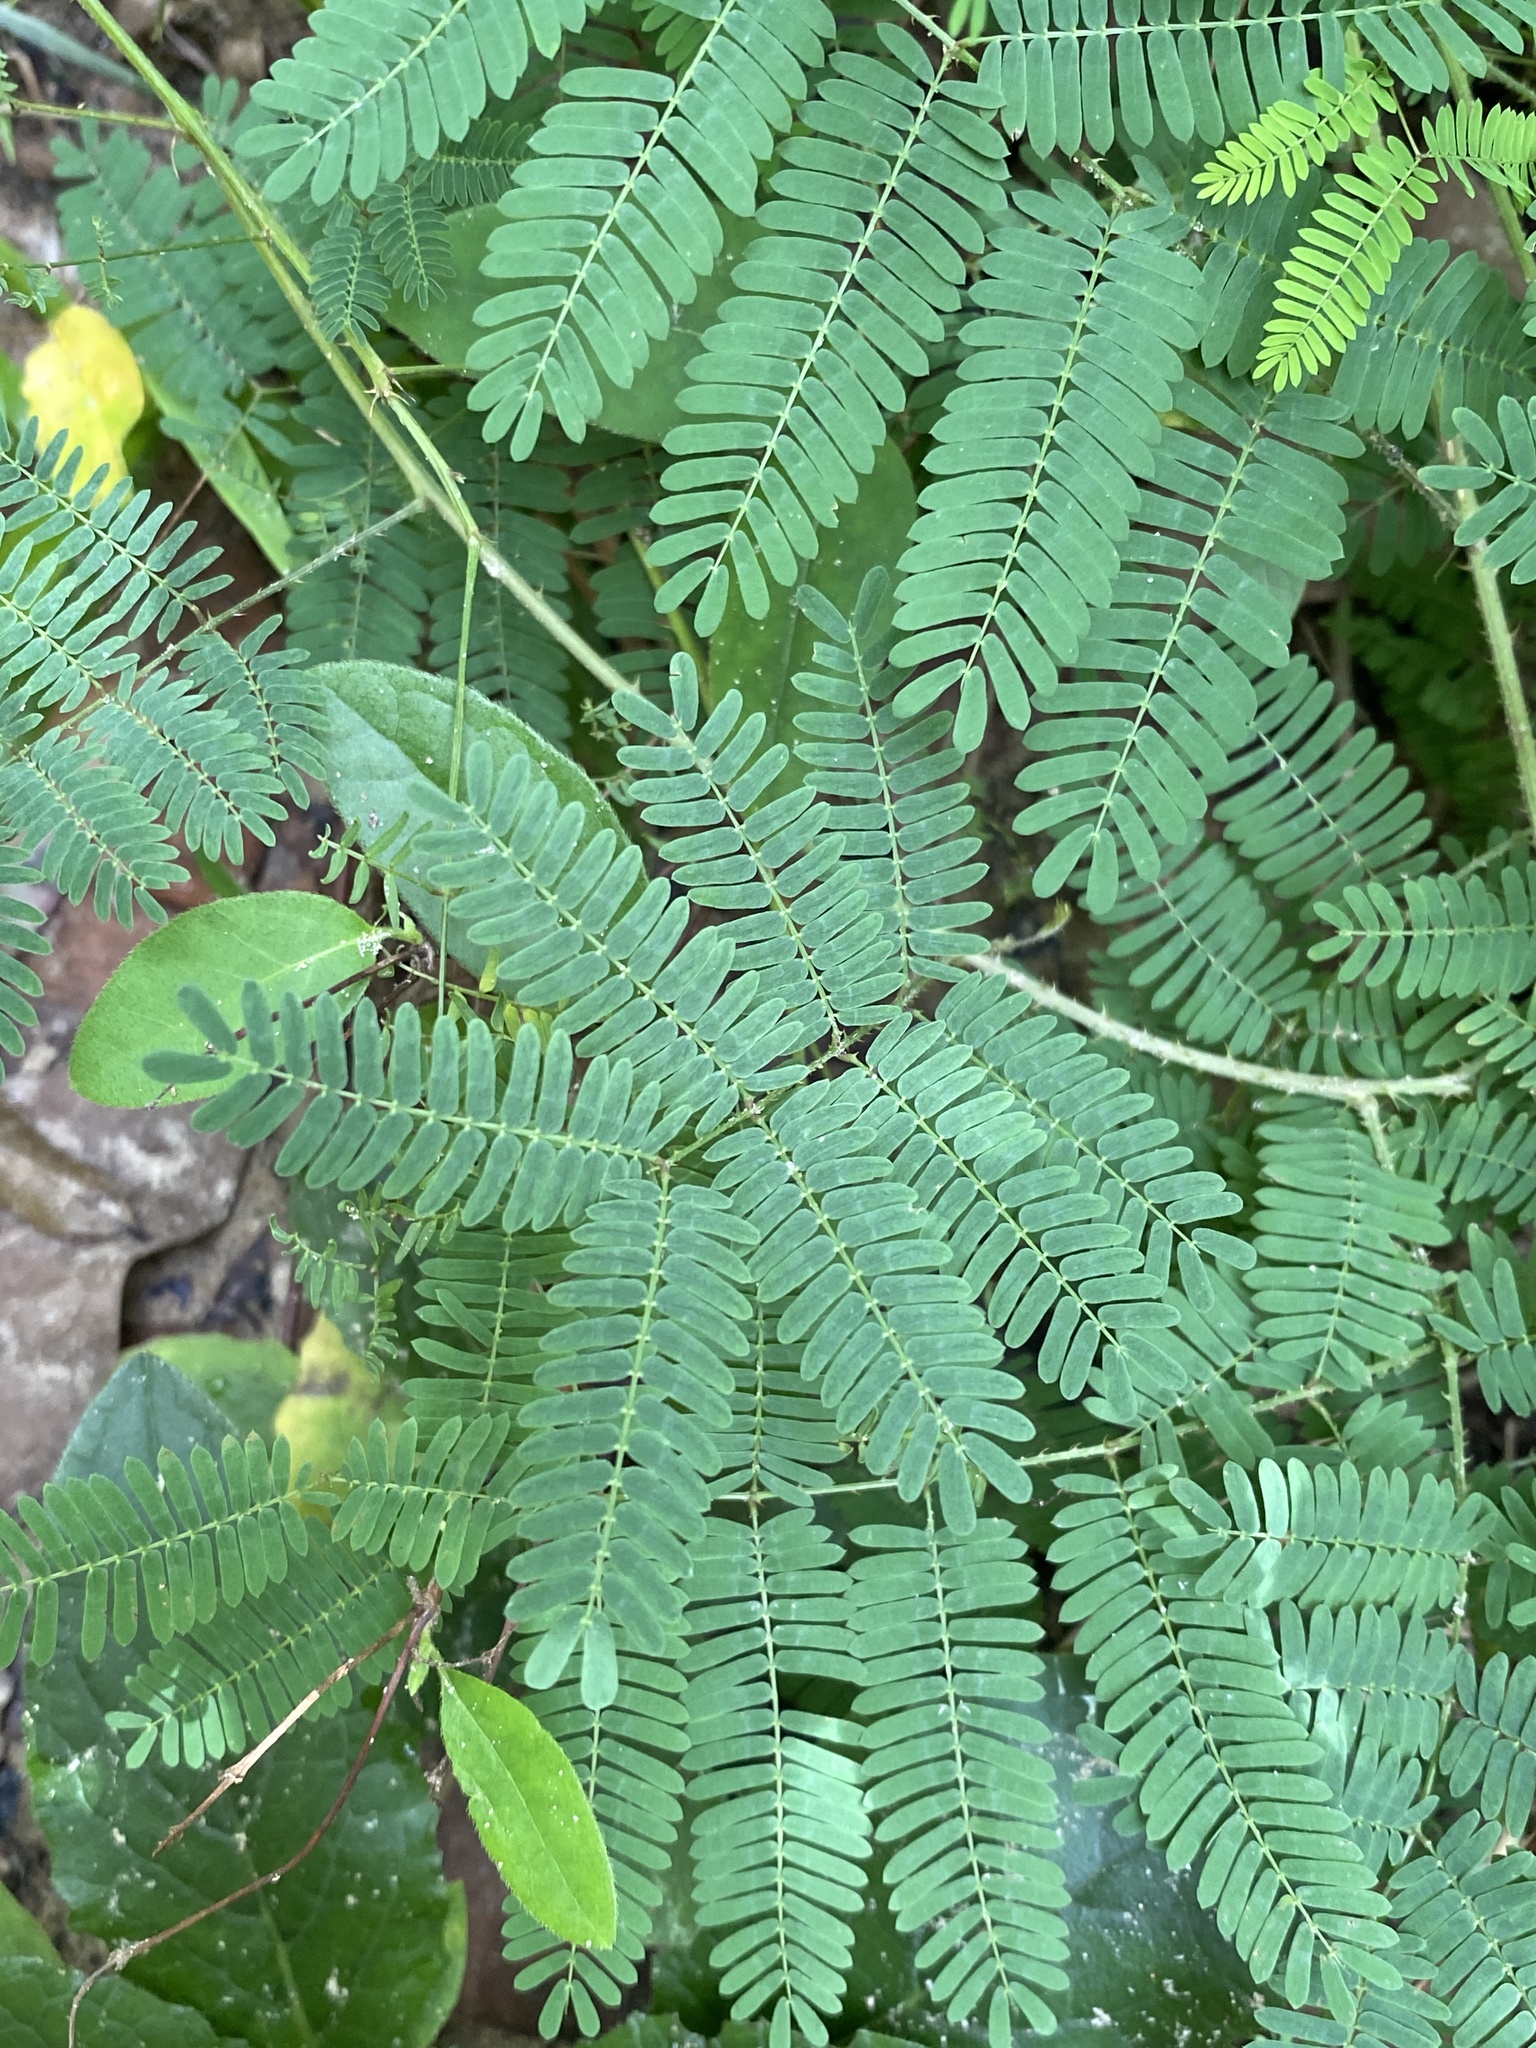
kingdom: Plantae
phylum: Tracheophyta
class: Magnoliopsida
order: Fabales
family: Fabaceae
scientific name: Fabaceae
